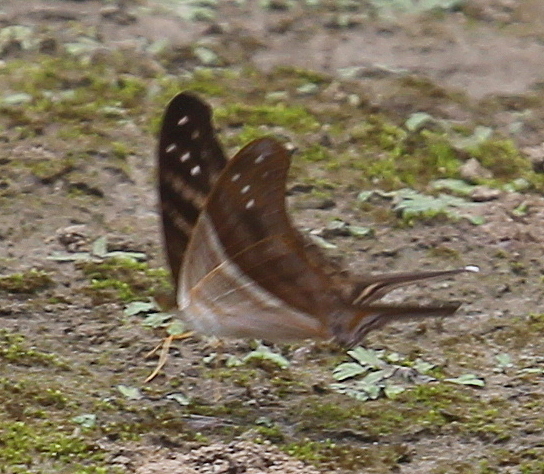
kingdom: Animalia
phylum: Arthropoda
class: Insecta
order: Lepidoptera
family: Nymphalidae
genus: Marpesia
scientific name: Marpesia chiron
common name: Many-banded daggerwing
